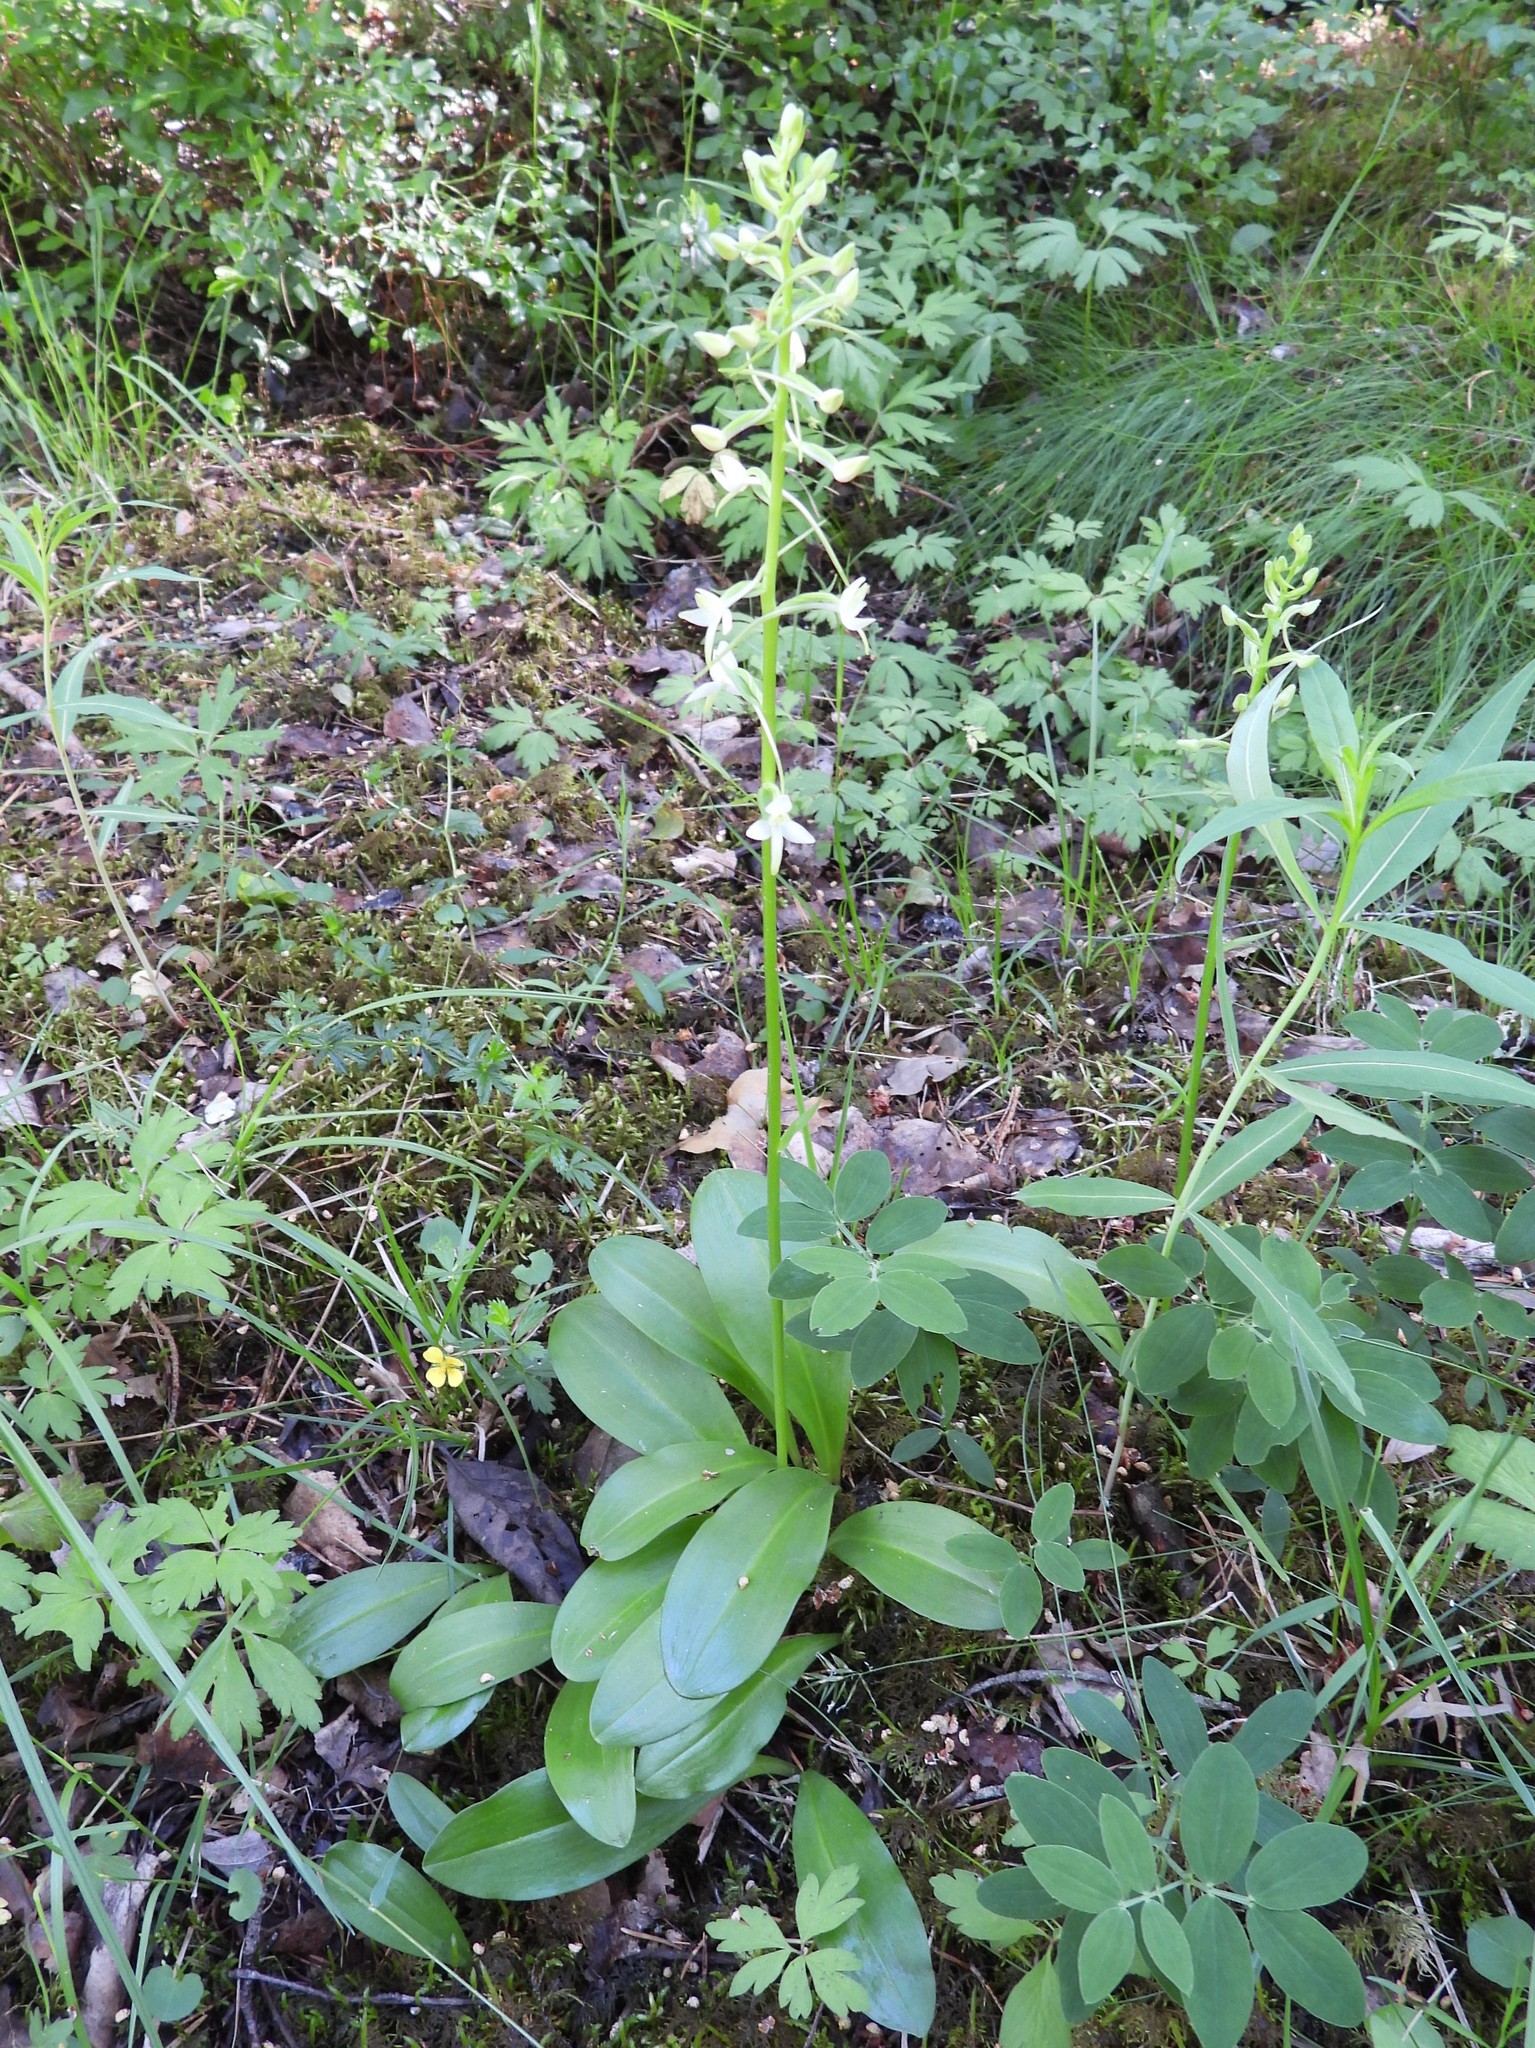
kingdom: Plantae
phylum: Tracheophyta
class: Liliopsida
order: Asparagales
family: Orchidaceae
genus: Platanthera
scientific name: Platanthera bifolia
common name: Lesser butterfly-orchid
